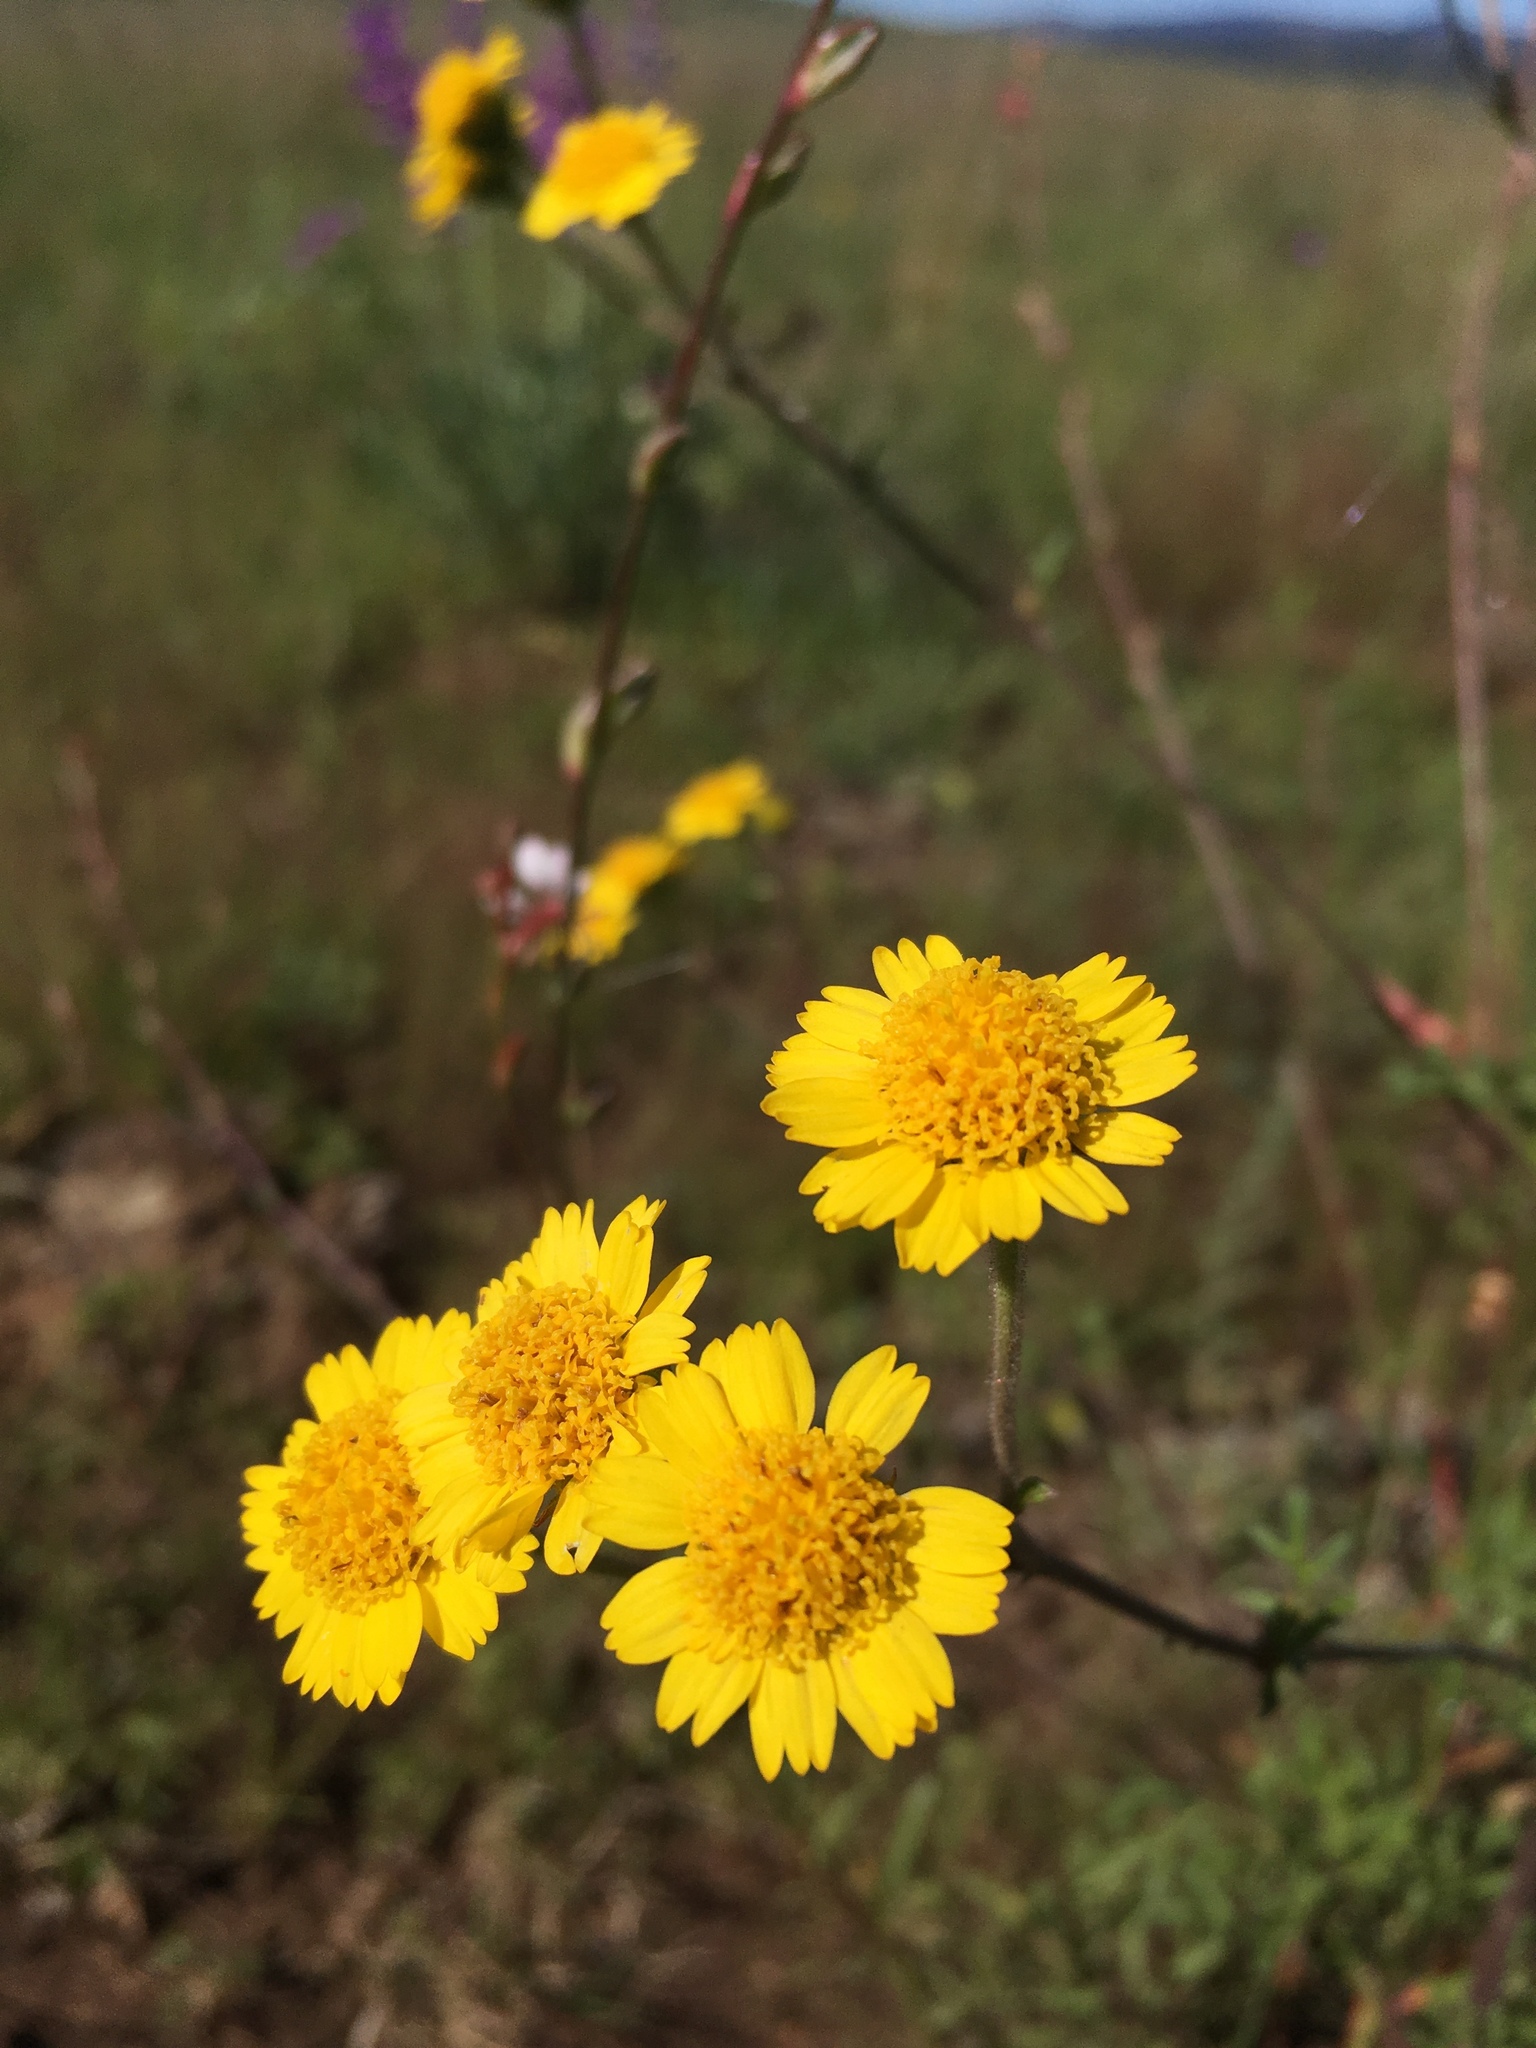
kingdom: Plantae
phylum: Tracheophyta
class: Magnoliopsida
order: Asterales
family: Asteraceae
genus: Hymenothrix
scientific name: Hymenothrix dissecta
